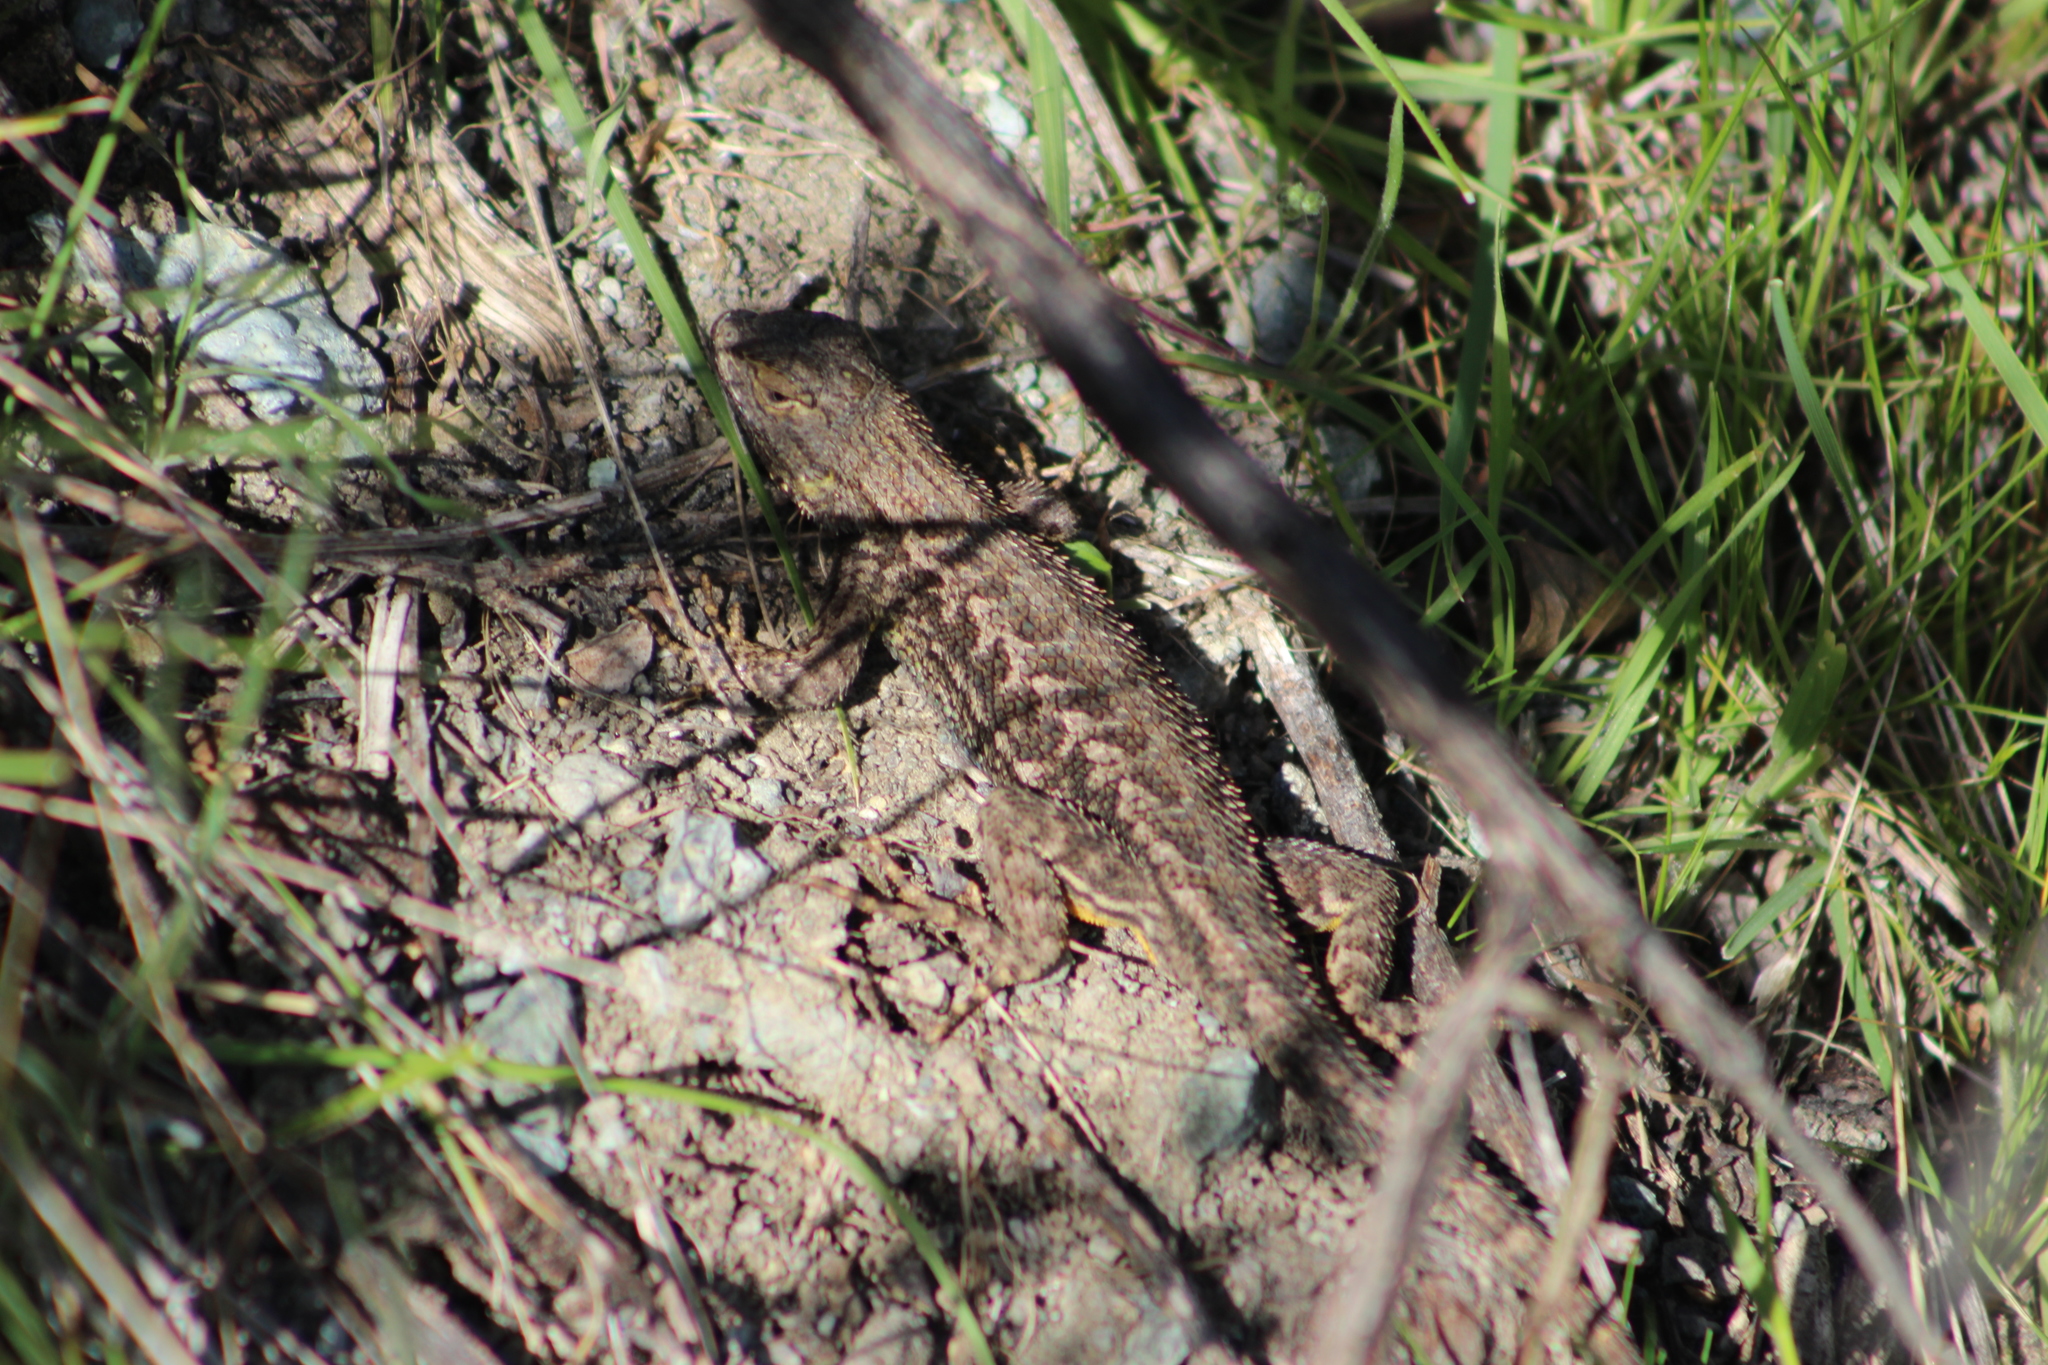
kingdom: Animalia
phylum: Chordata
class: Squamata
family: Phrynosomatidae
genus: Sceloporus
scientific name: Sceloporus occidentalis
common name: Western fence lizard
